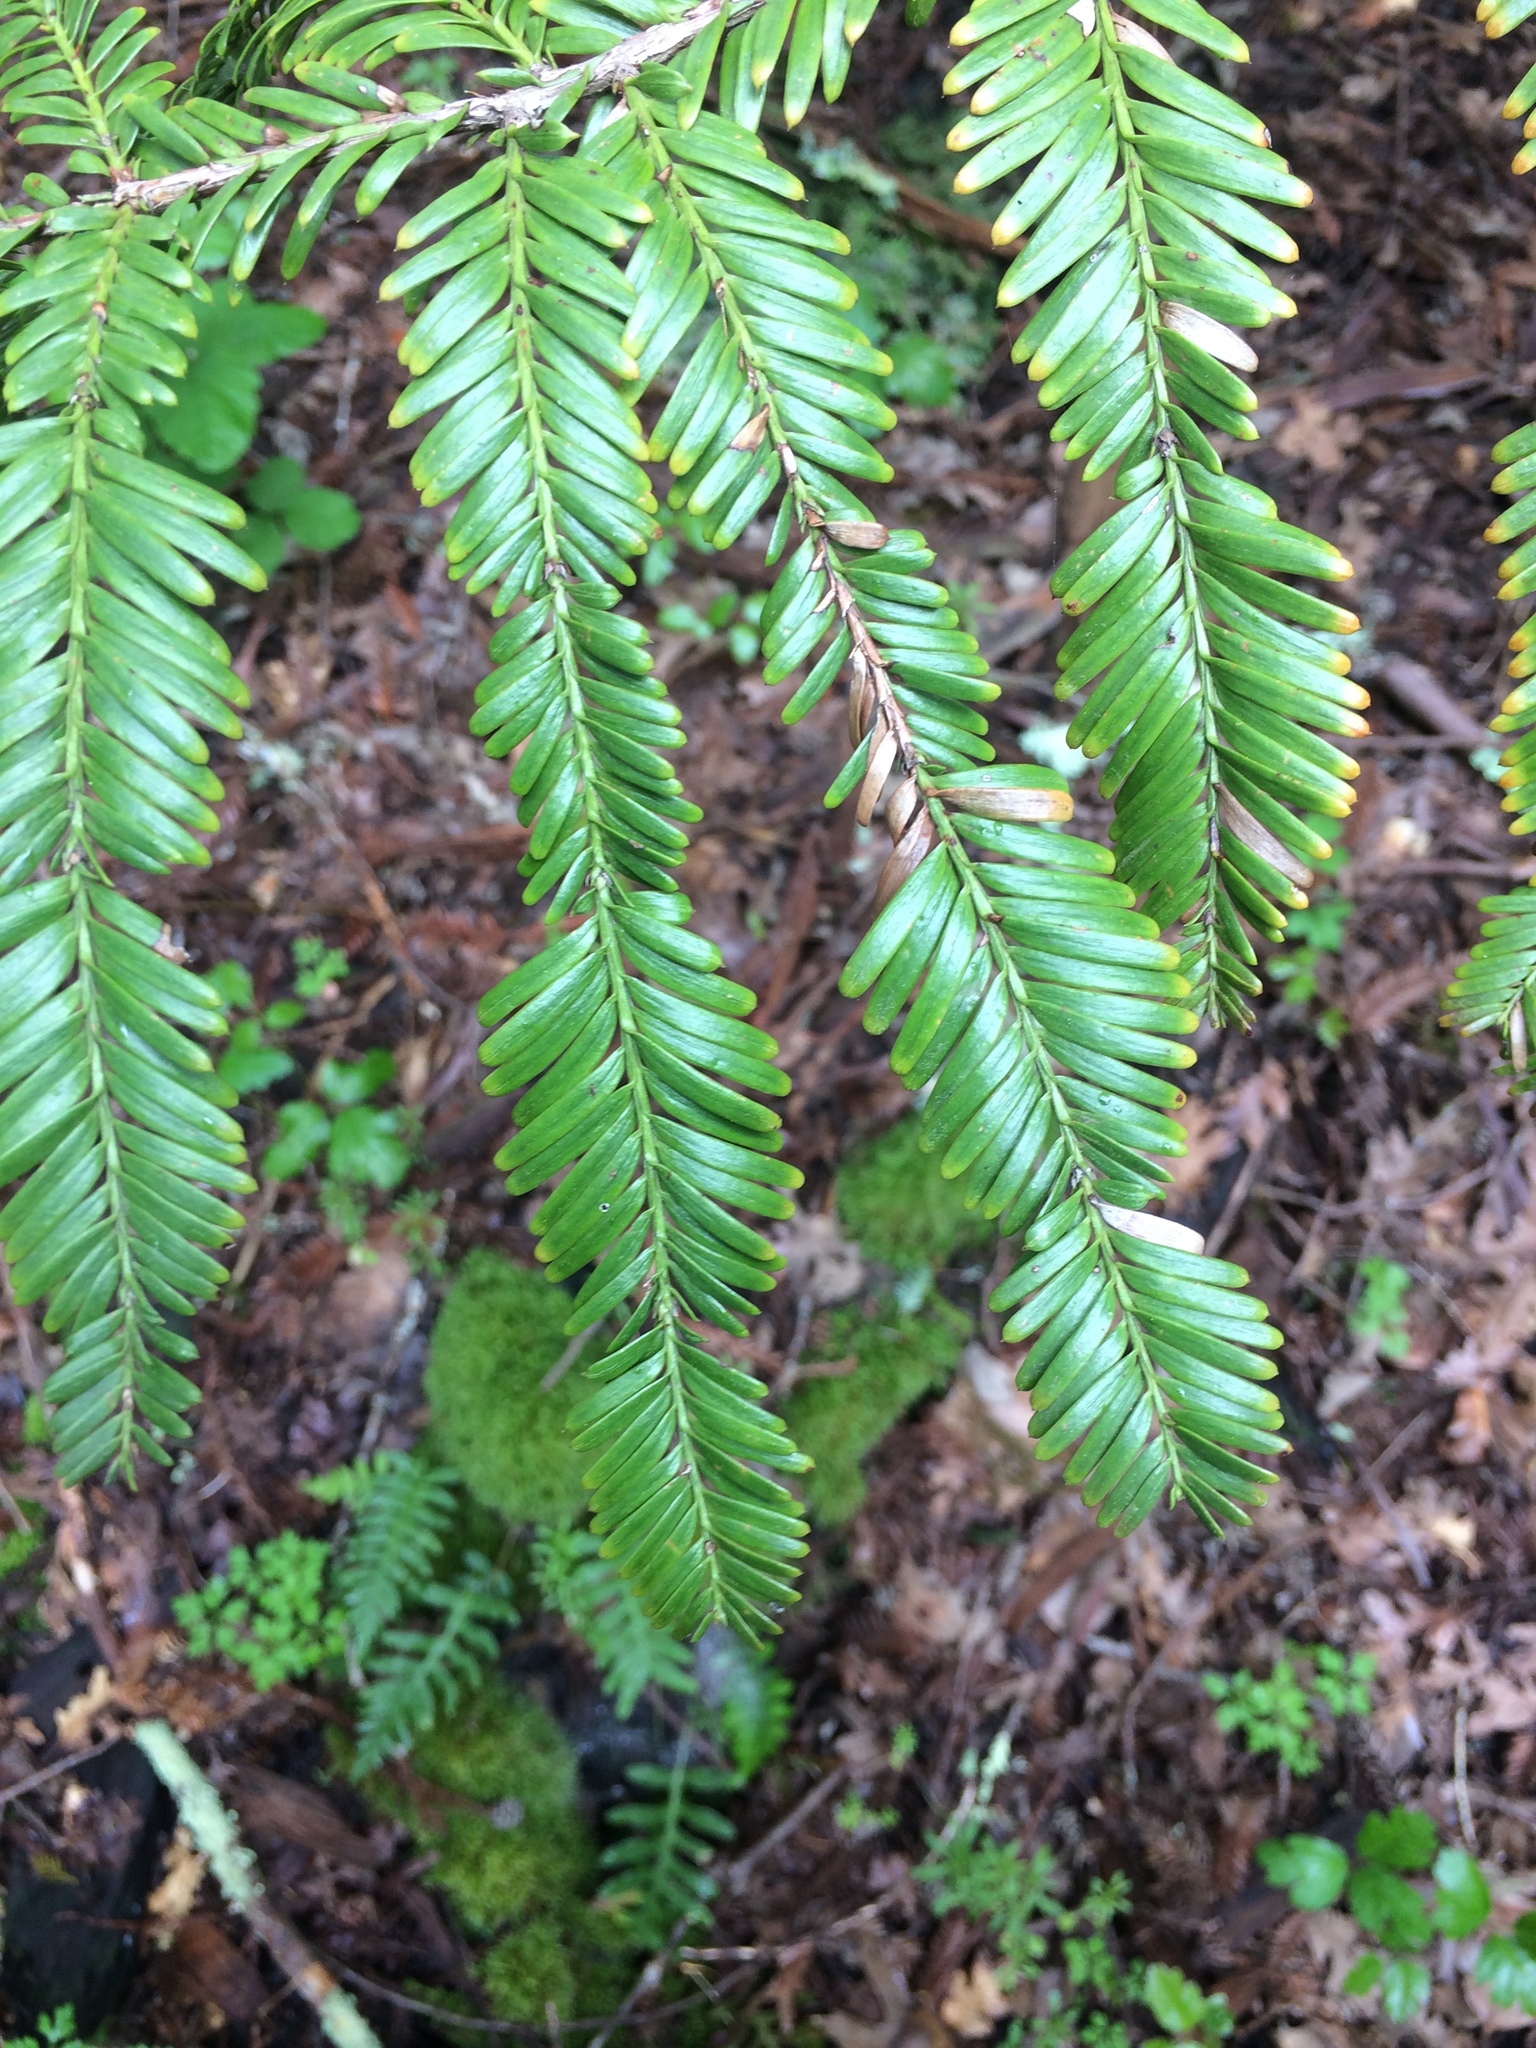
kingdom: Plantae
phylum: Tracheophyta
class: Pinopsida
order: Pinales
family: Cupressaceae
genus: Sequoia
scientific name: Sequoia sempervirens
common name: Coast redwood
